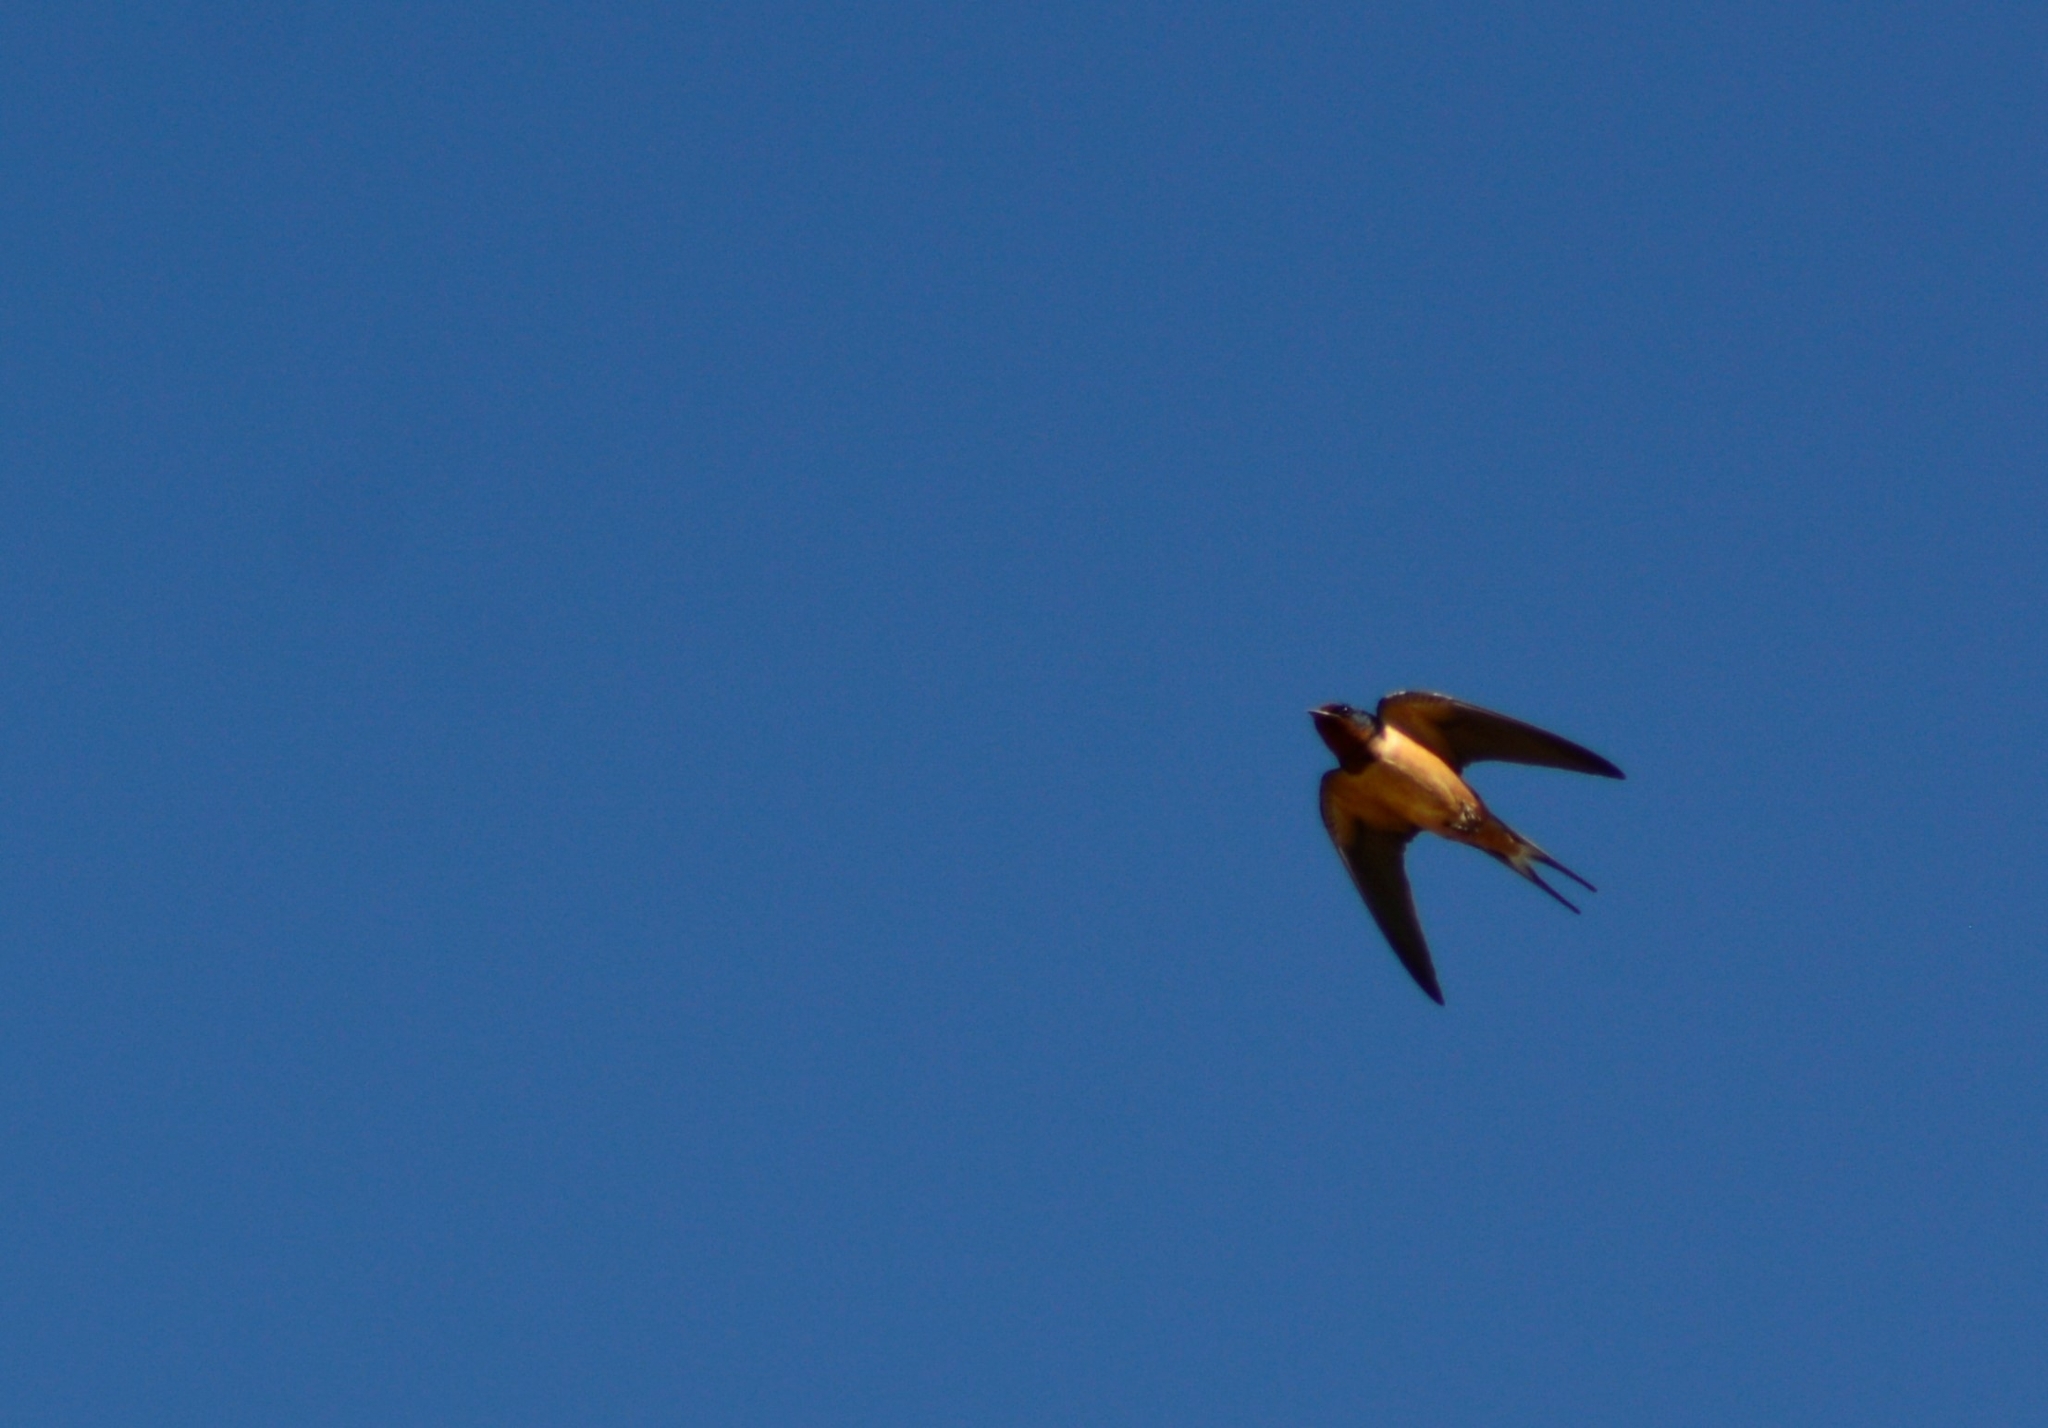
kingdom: Animalia
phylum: Chordata
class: Aves
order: Passeriformes
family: Hirundinidae
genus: Hirundo
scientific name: Hirundo rustica
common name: Barn swallow
